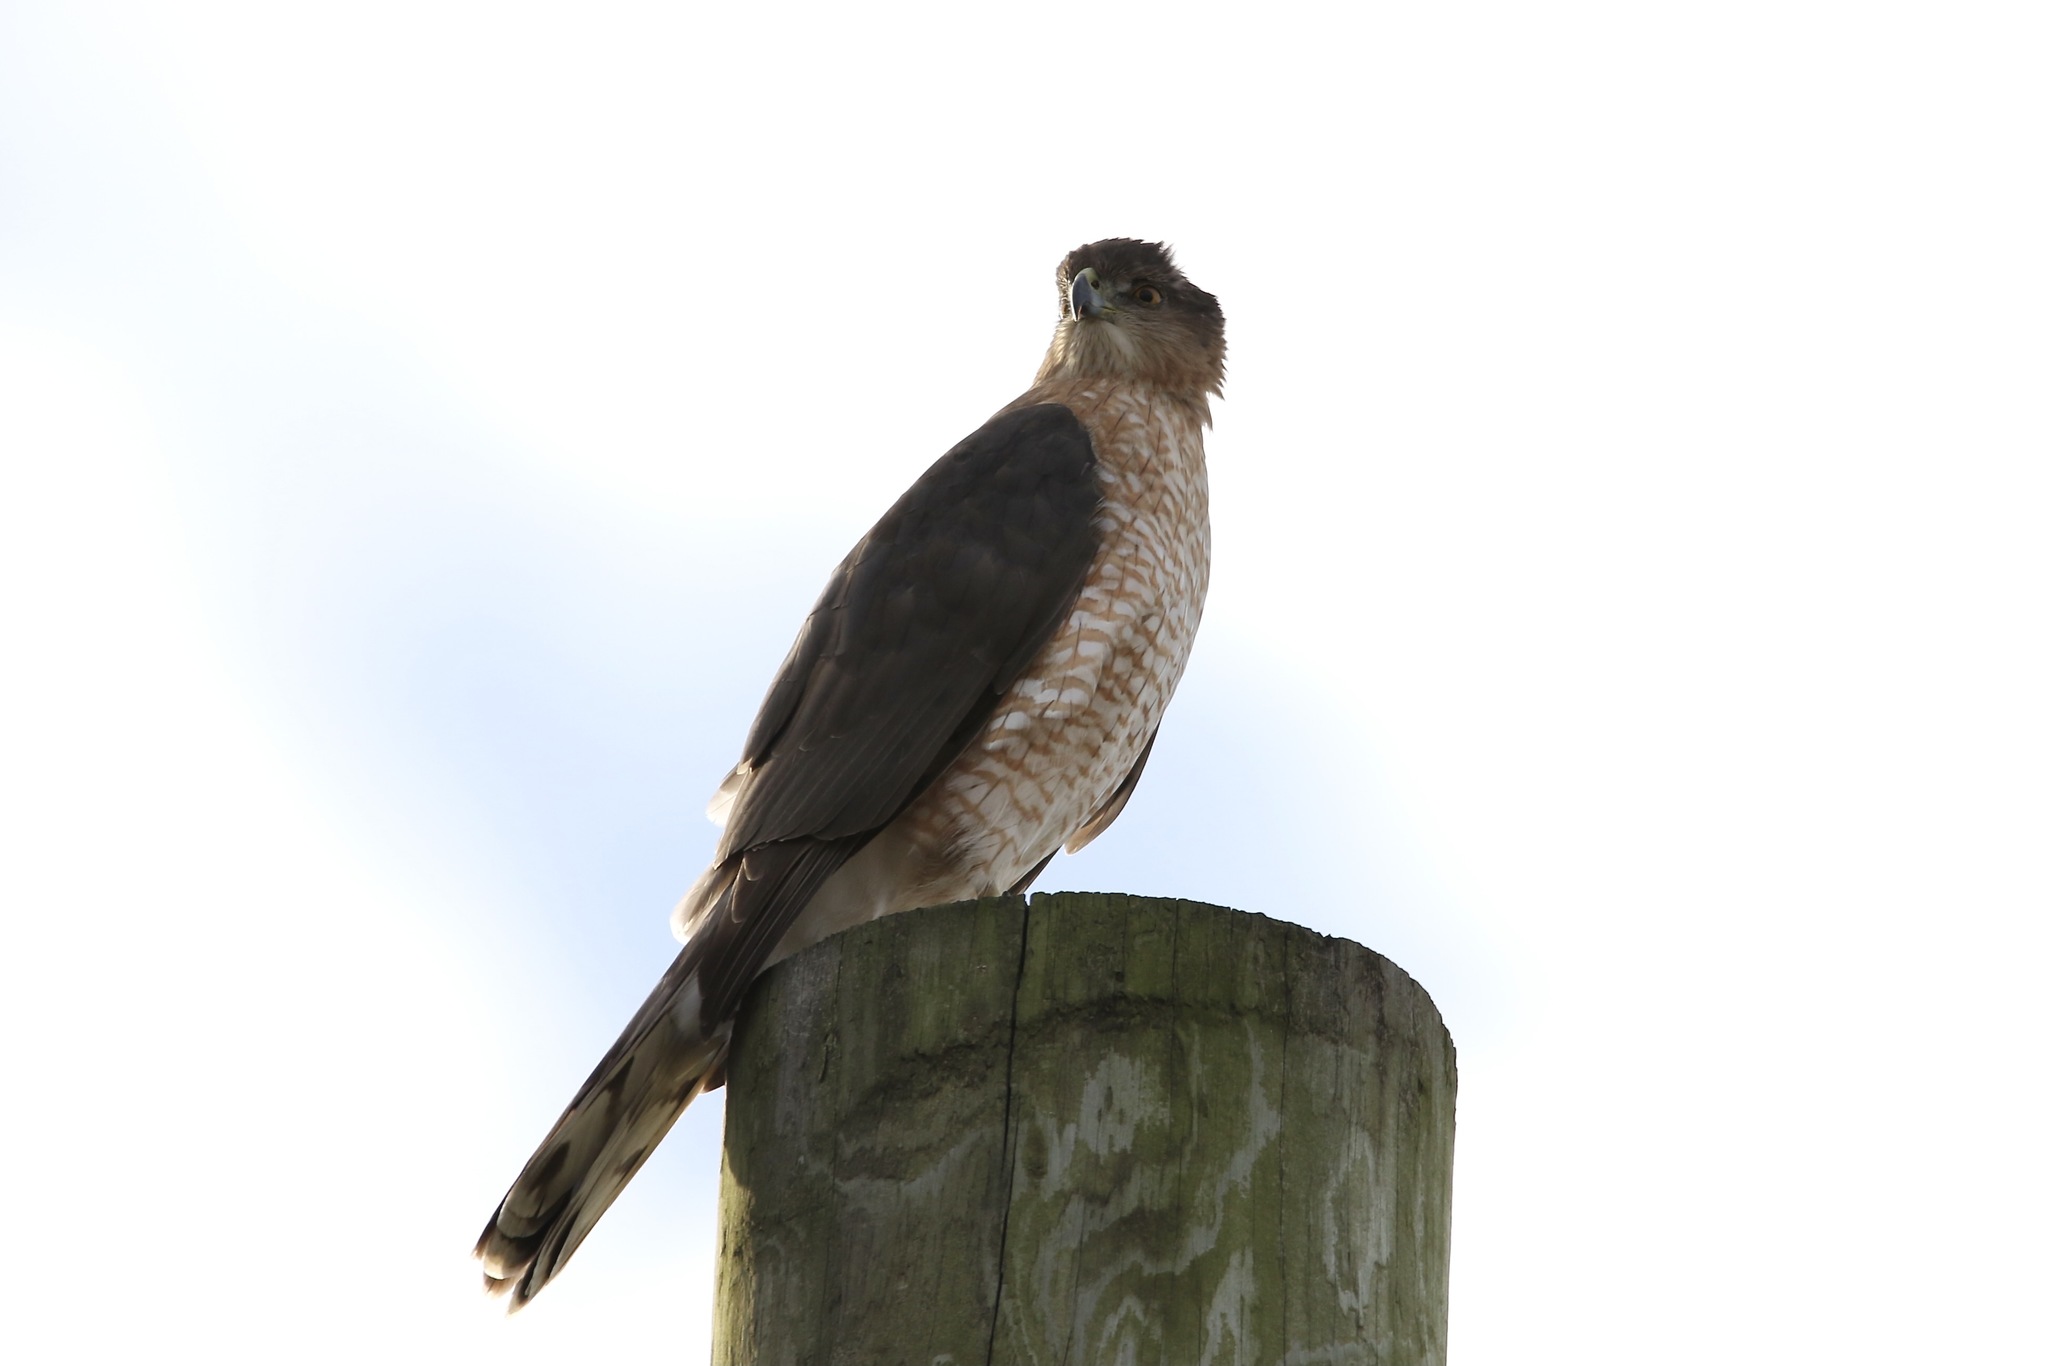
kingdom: Animalia
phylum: Chordata
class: Aves
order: Accipitriformes
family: Accipitridae
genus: Accipiter
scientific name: Accipiter cooperii
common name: Cooper's hawk
